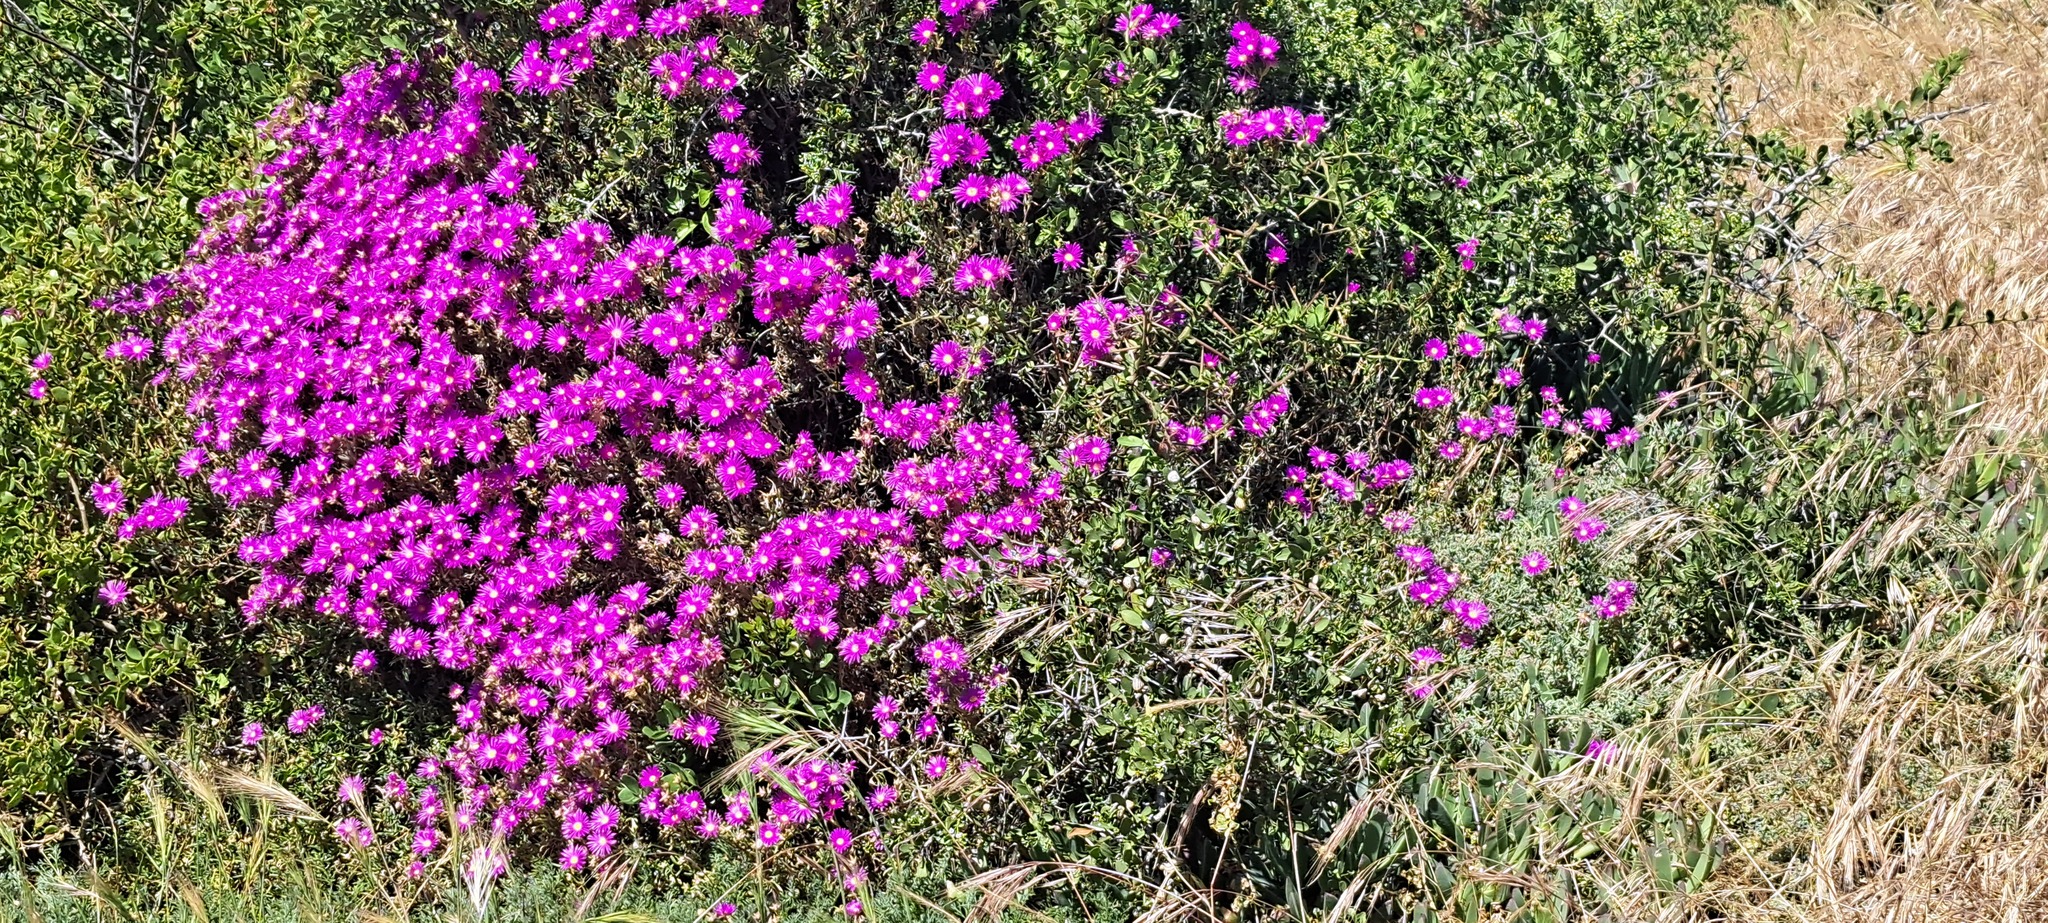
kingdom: Plantae
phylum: Tracheophyta
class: Magnoliopsida
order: Caryophyllales
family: Aizoaceae
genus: Lampranthus
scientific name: Lampranthus stipulaceus
